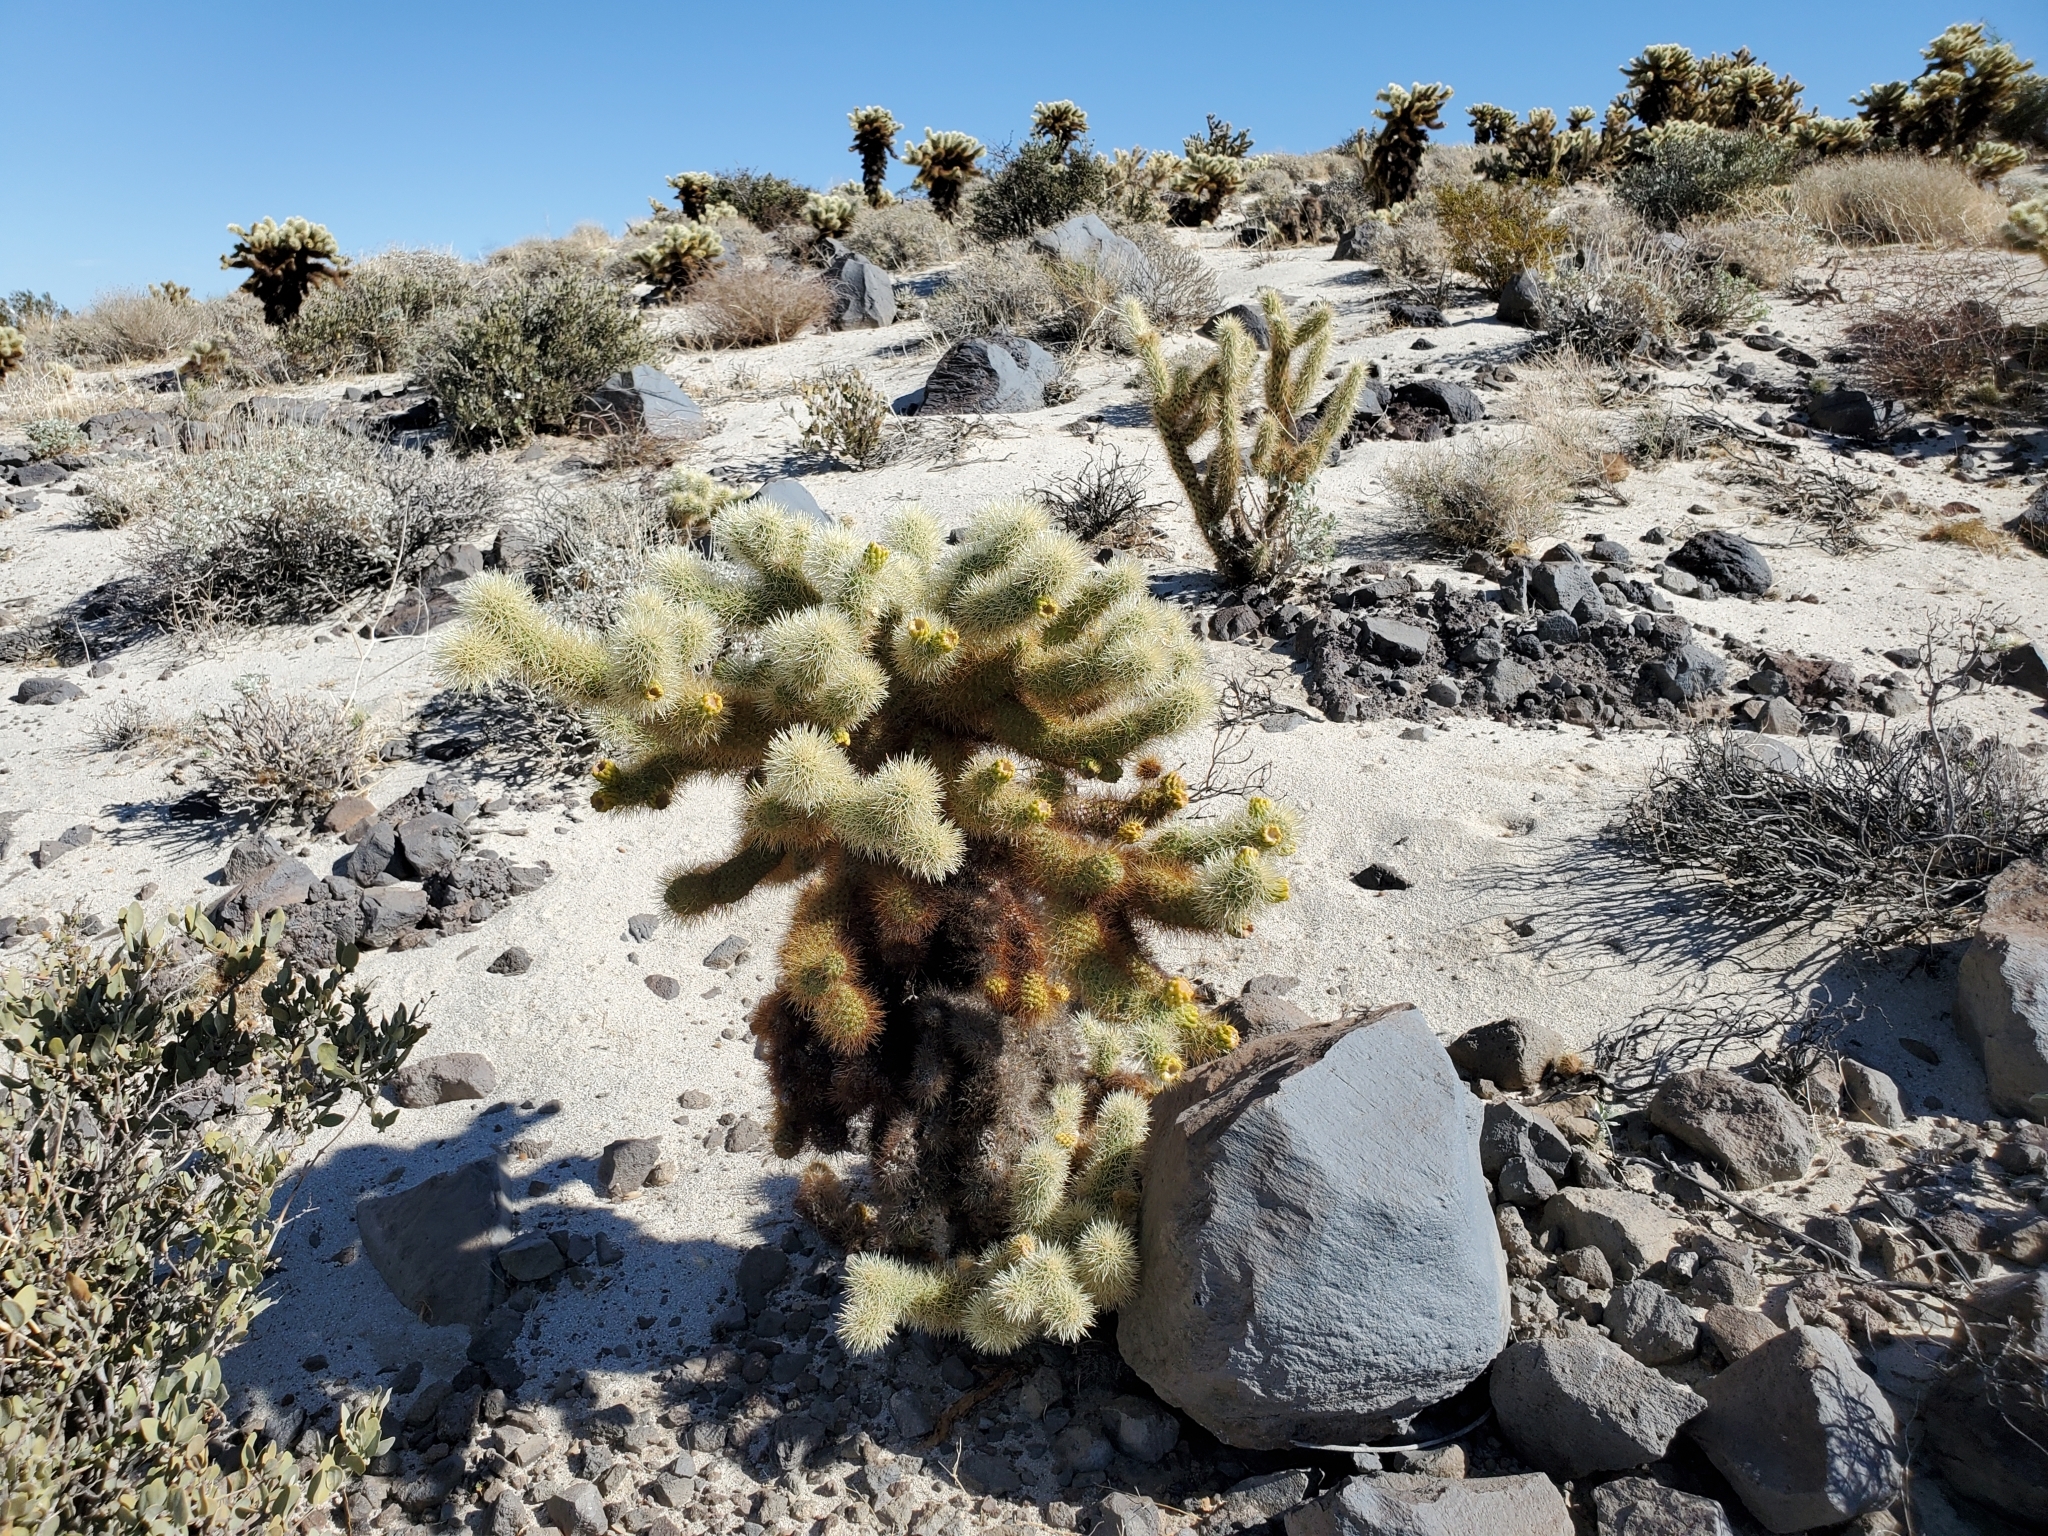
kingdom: Plantae
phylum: Tracheophyta
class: Magnoliopsida
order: Caryophyllales
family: Cactaceae
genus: Cylindropuntia
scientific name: Cylindropuntia fosbergii
